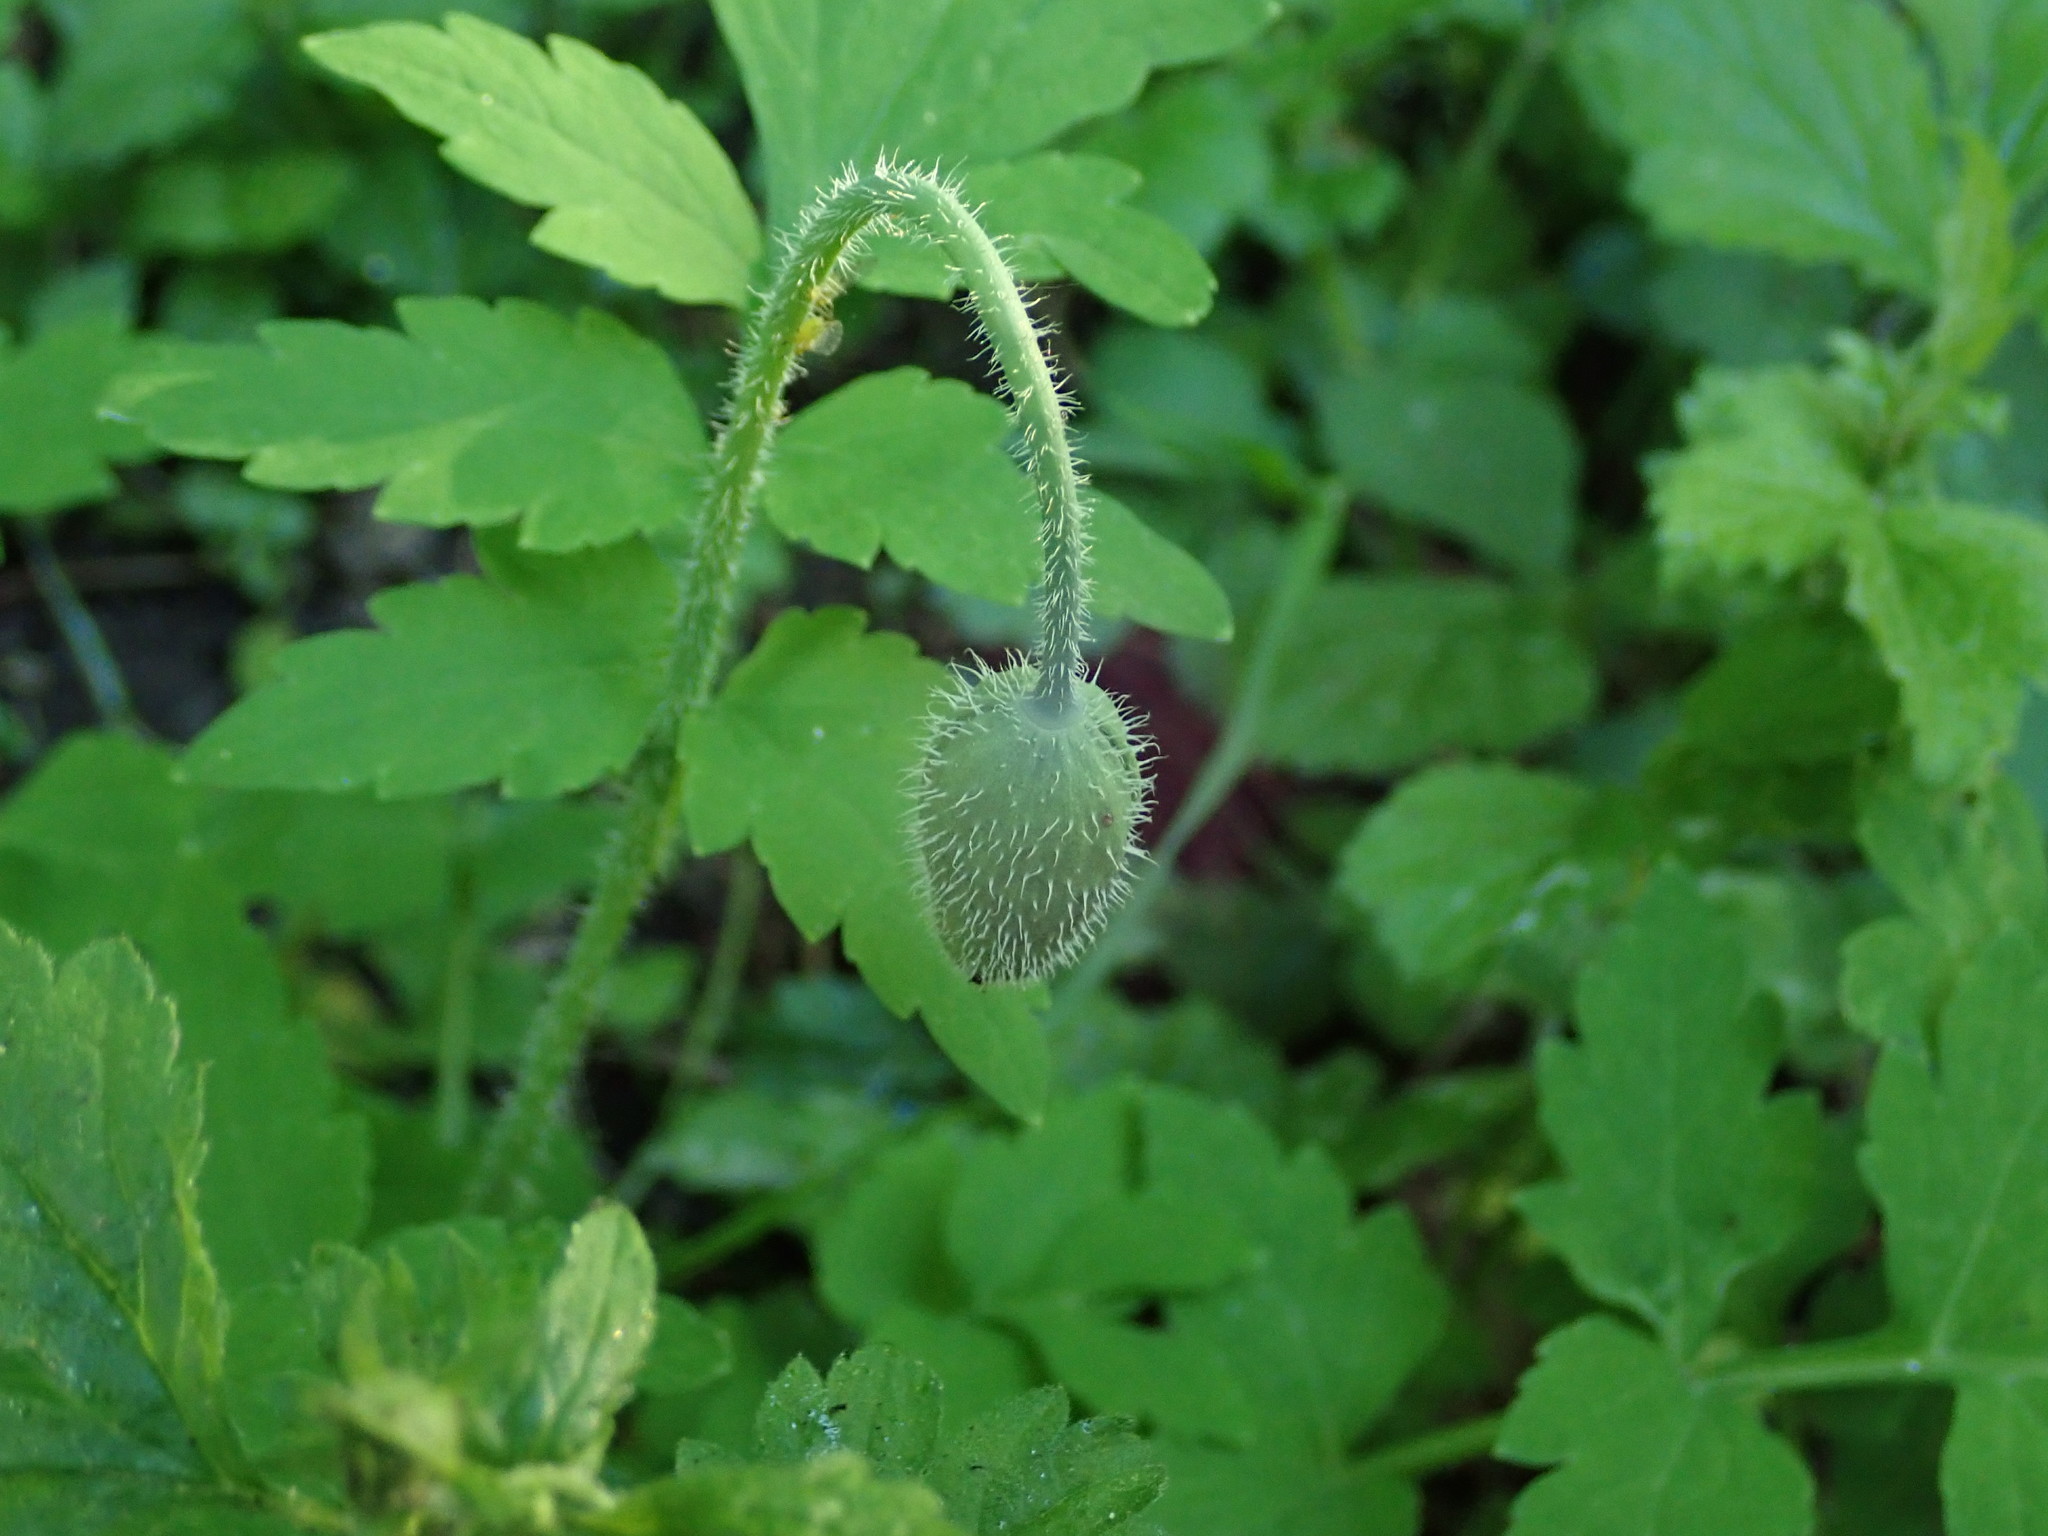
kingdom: Plantae
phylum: Tracheophyta
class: Magnoliopsida
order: Ranunculales
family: Papaveraceae
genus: Papaver
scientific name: Papaver cambricum
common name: Poppy
